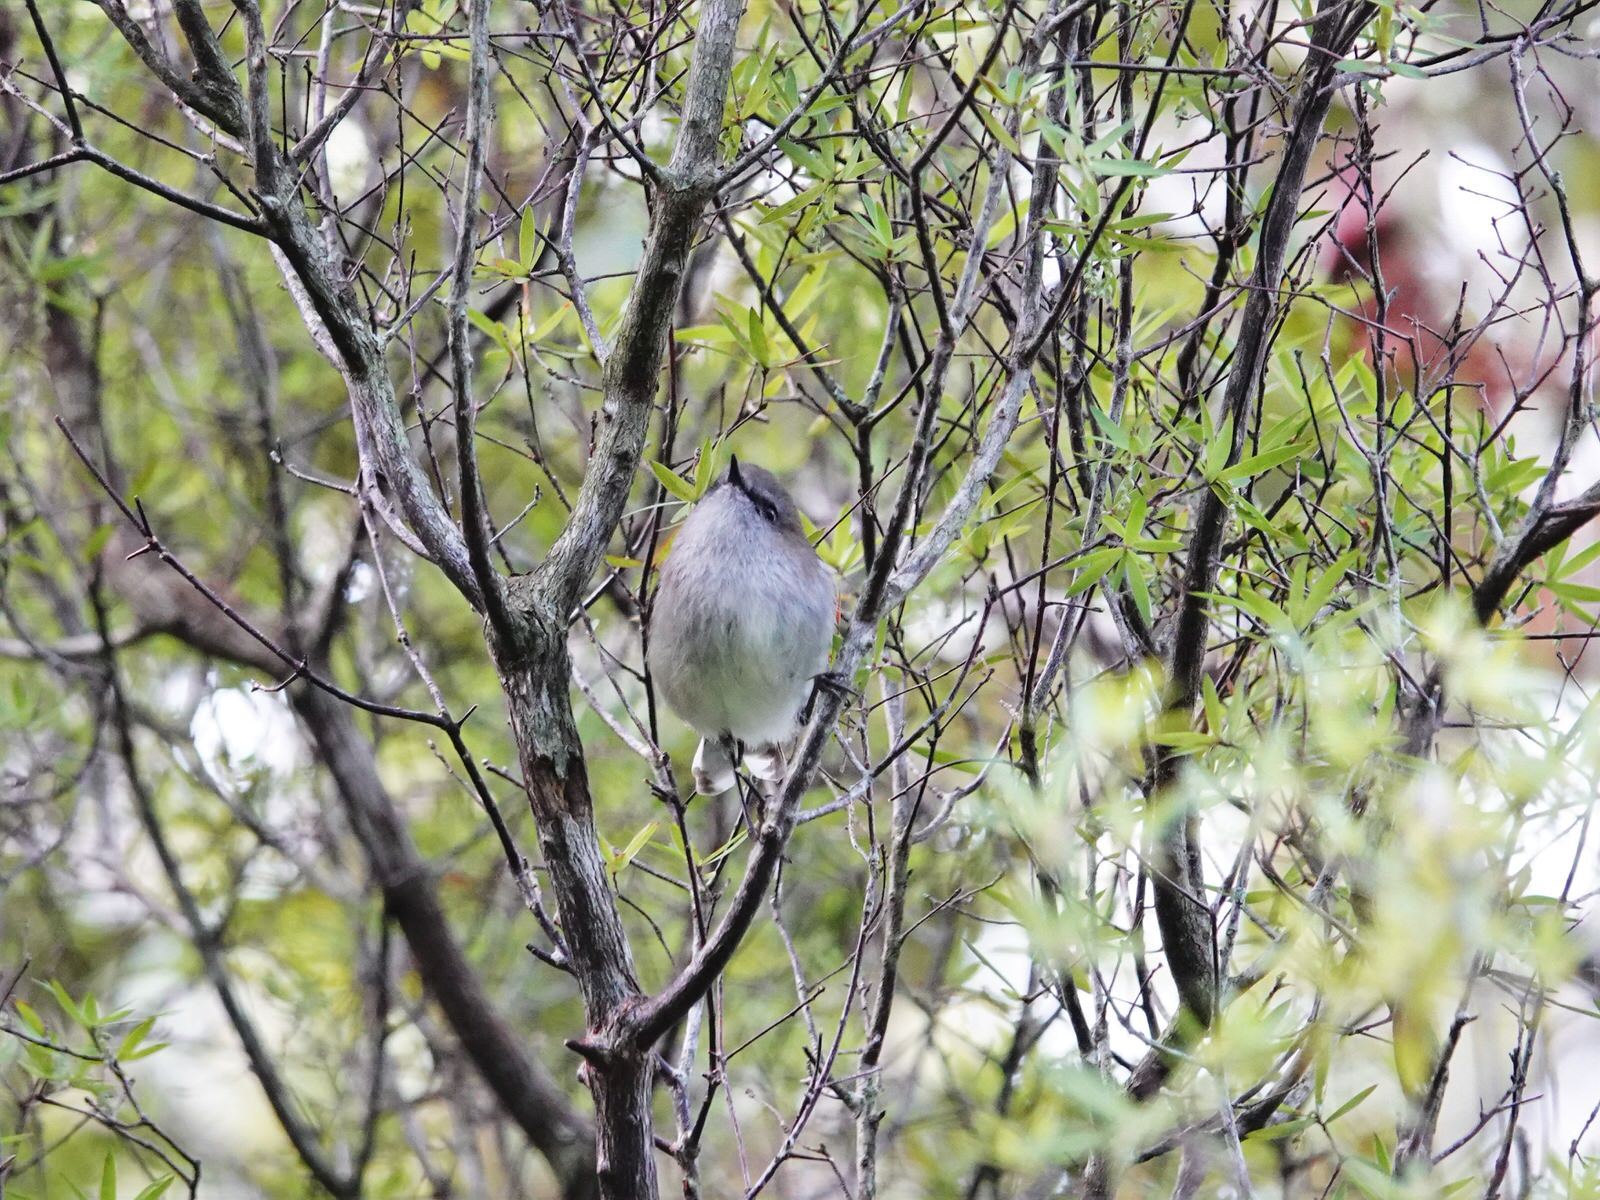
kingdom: Animalia
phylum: Chordata
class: Aves
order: Passeriformes
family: Acanthizidae
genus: Gerygone
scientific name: Gerygone igata
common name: Grey gerygone
